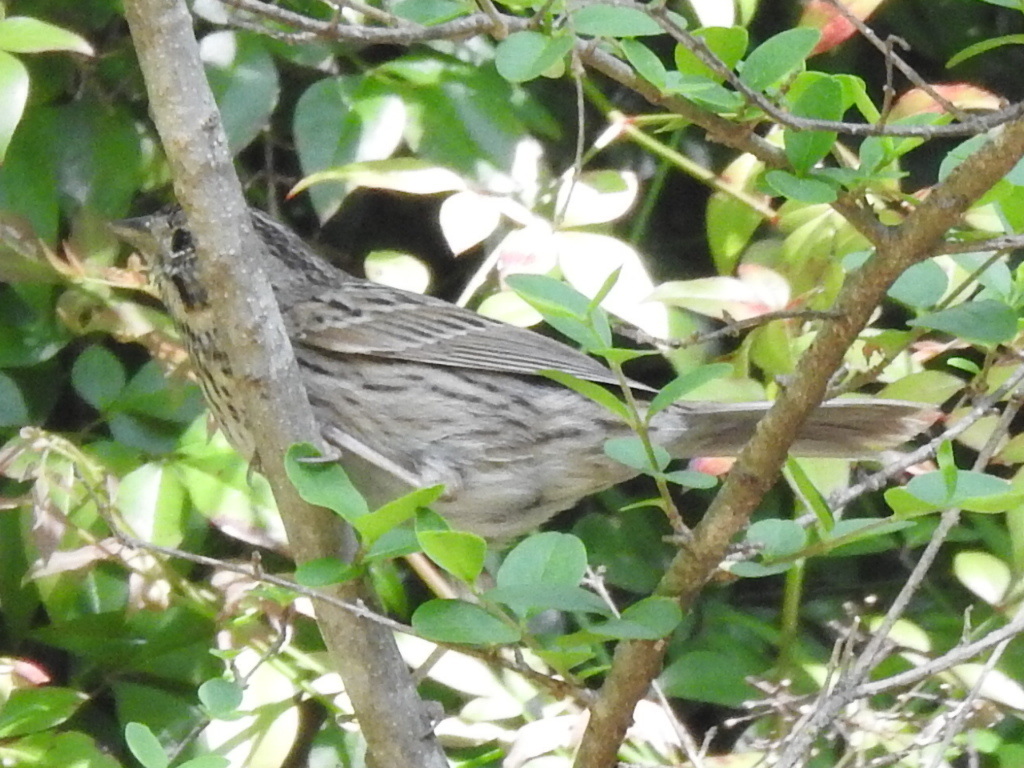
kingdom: Animalia
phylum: Chordata
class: Aves
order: Passeriformes
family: Passerellidae
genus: Melospiza
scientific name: Melospiza lincolnii
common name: Lincoln's sparrow
